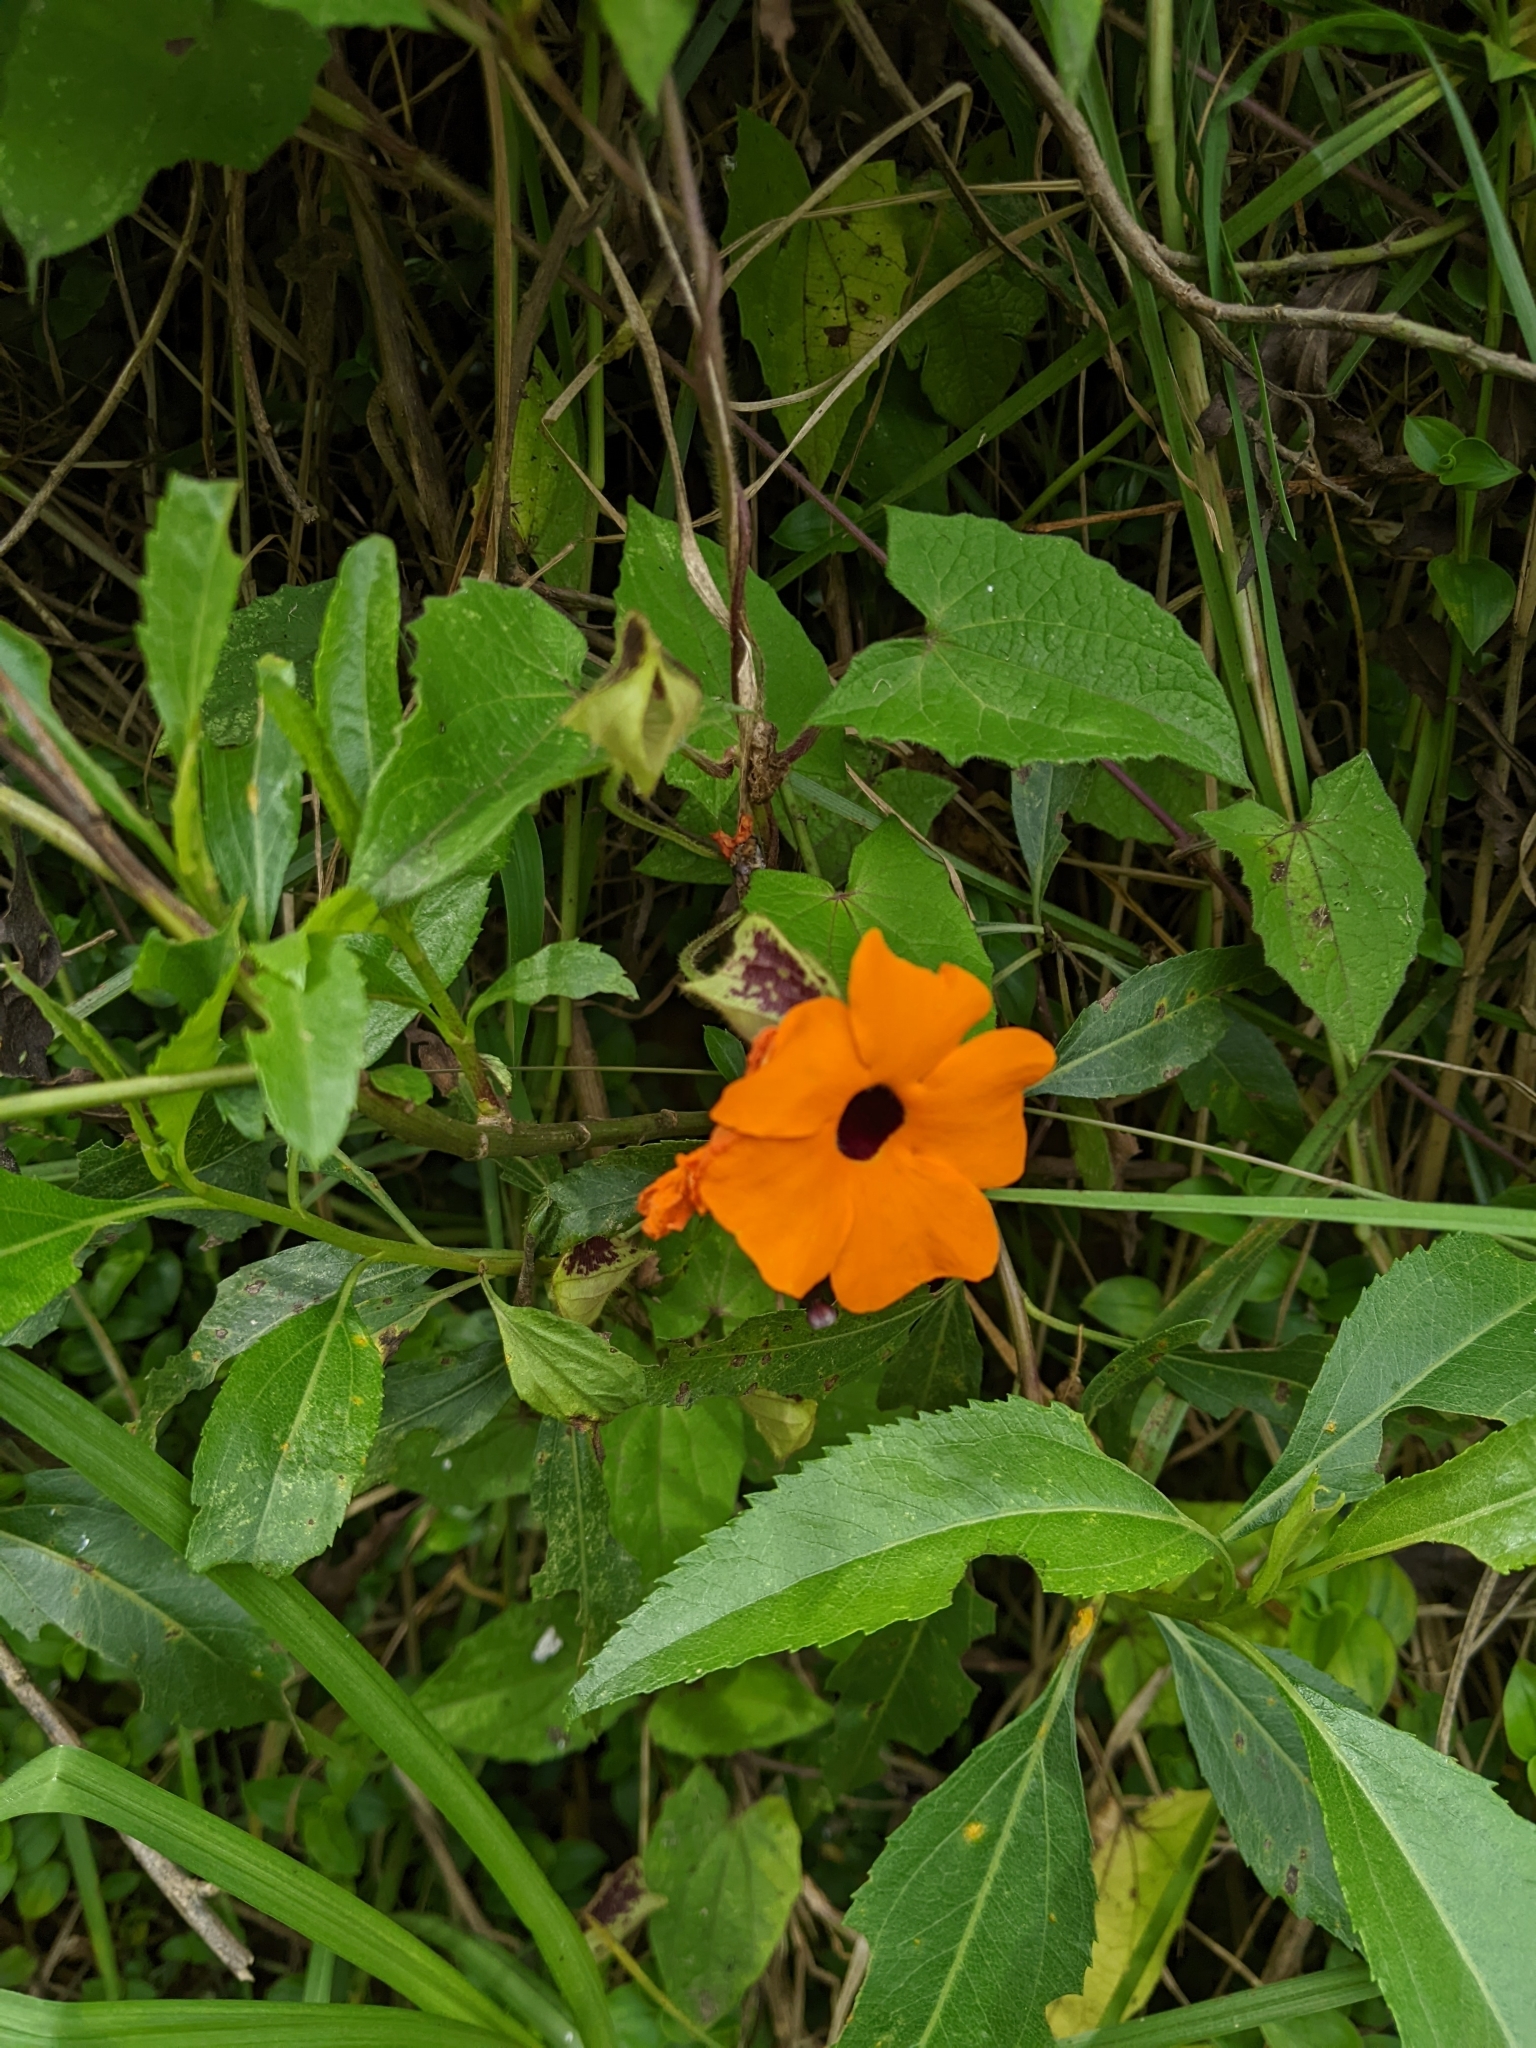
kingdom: Plantae
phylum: Tracheophyta
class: Magnoliopsida
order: Lamiales
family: Acanthaceae
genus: Thunbergia
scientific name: Thunbergia alata
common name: Blackeyed susan vine
